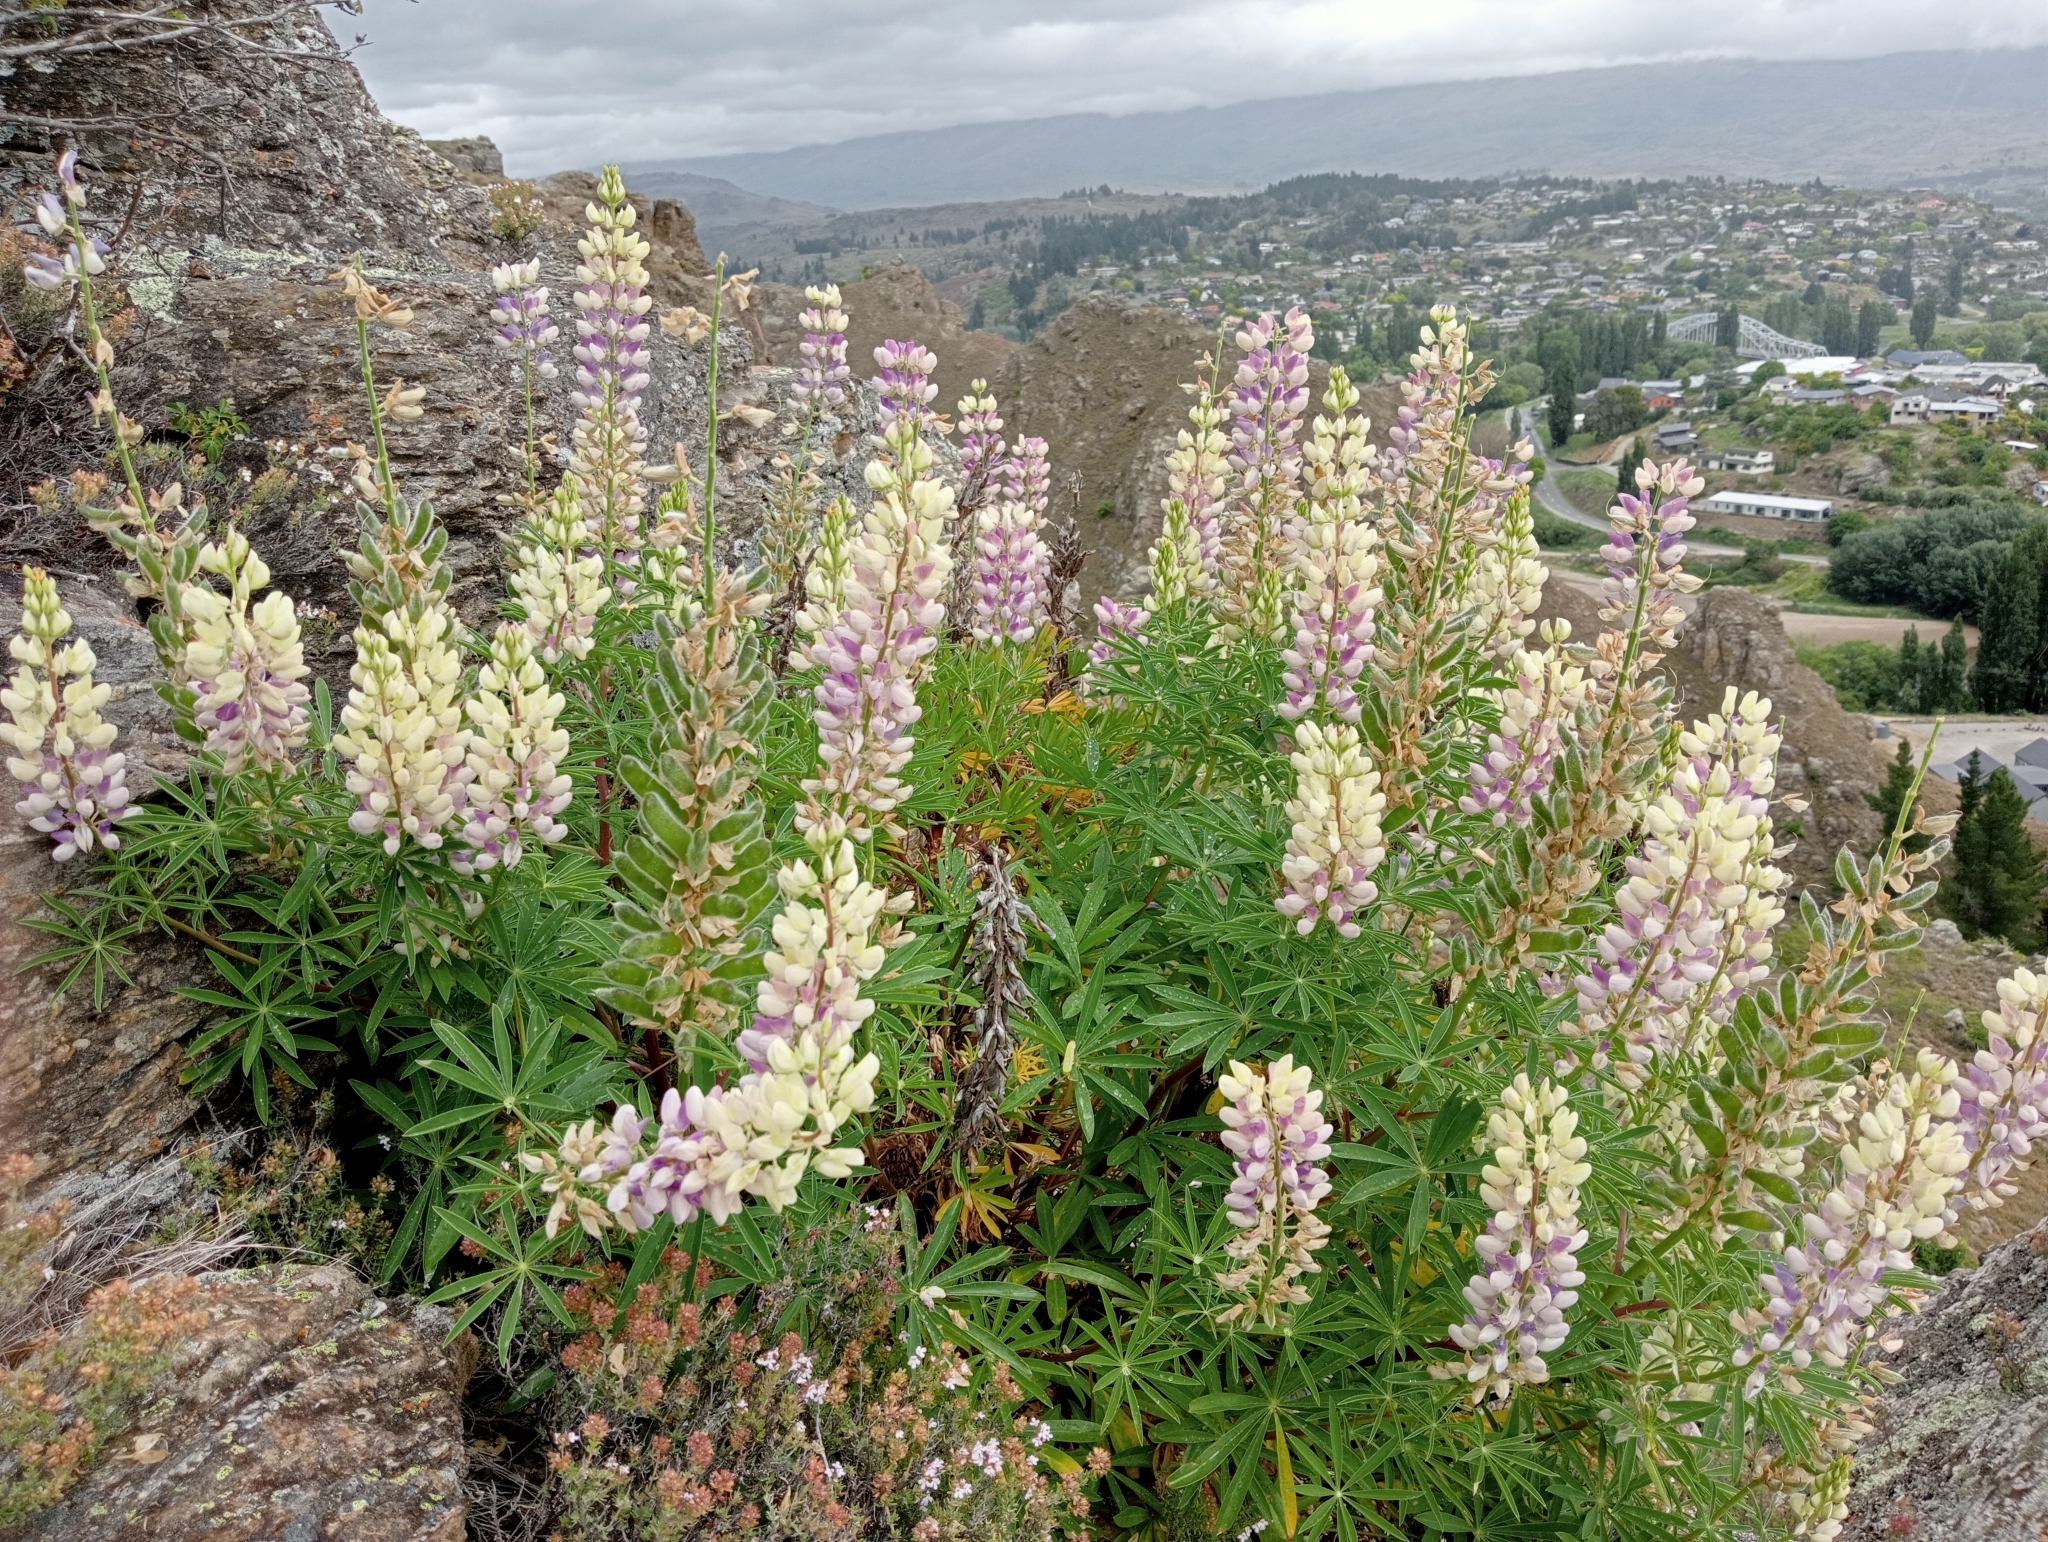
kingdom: Plantae
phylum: Tracheophyta
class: Magnoliopsida
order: Fabales
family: Fabaceae
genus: Lupinus
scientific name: Lupinus polyphyllus
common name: Garden lupin
